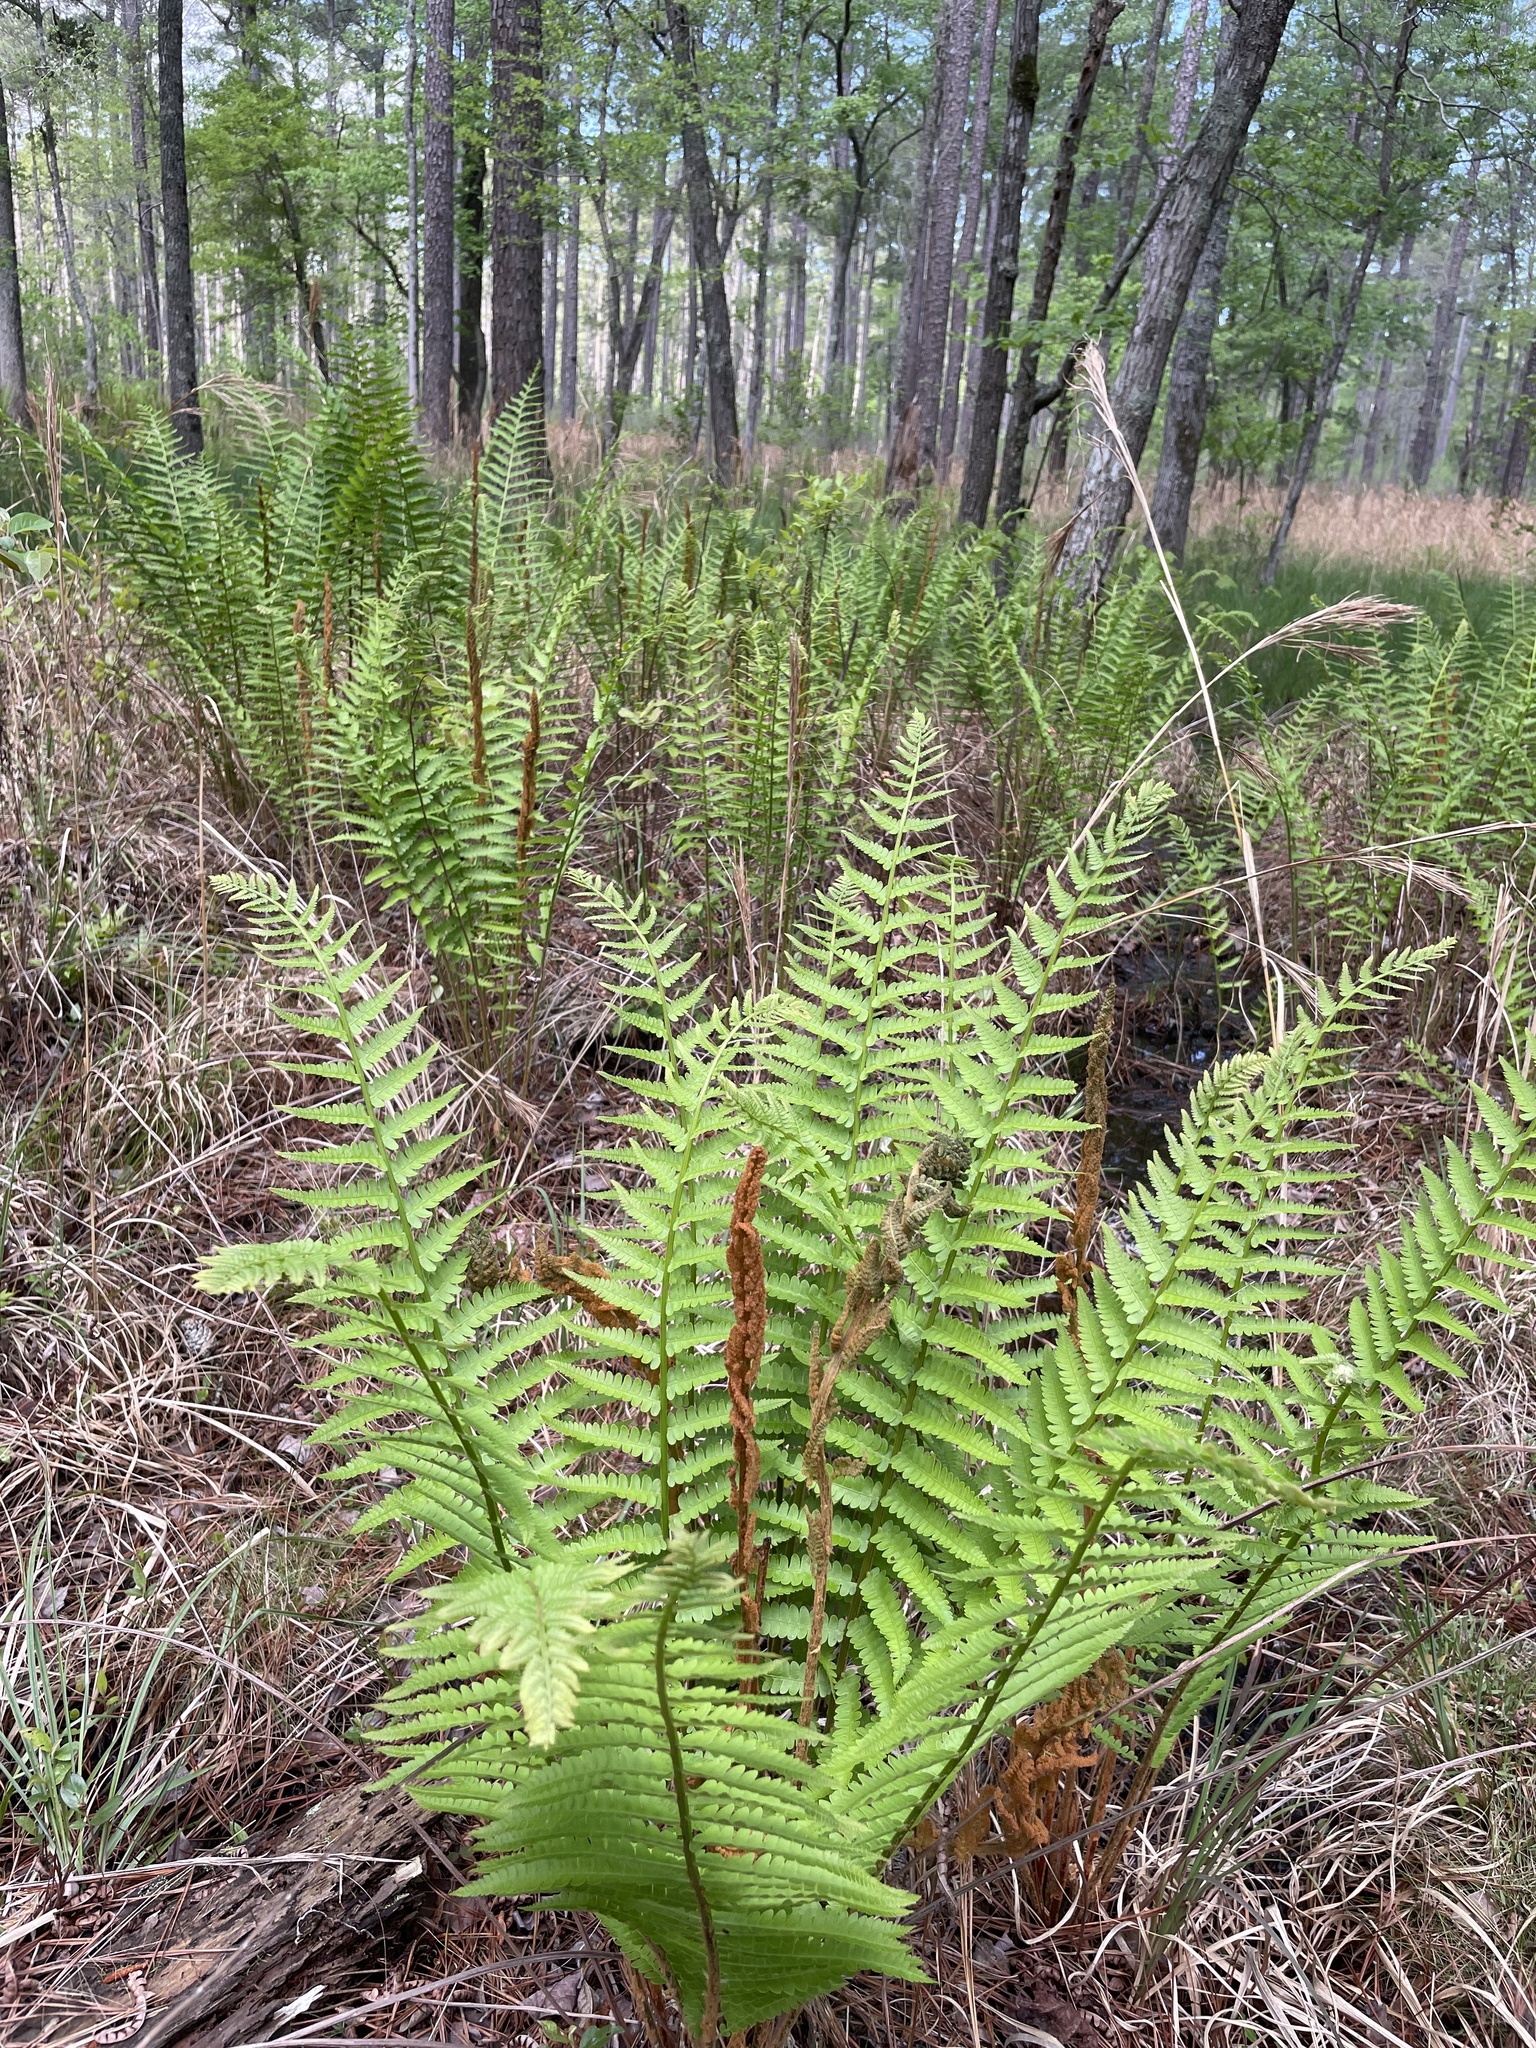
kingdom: Plantae
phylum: Tracheophyta
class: Polypodiopsida
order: Osmundales
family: Osmundaceae
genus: Osmundastrum
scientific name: Osmundastrum cinnamomeum
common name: Cinnamon fern
